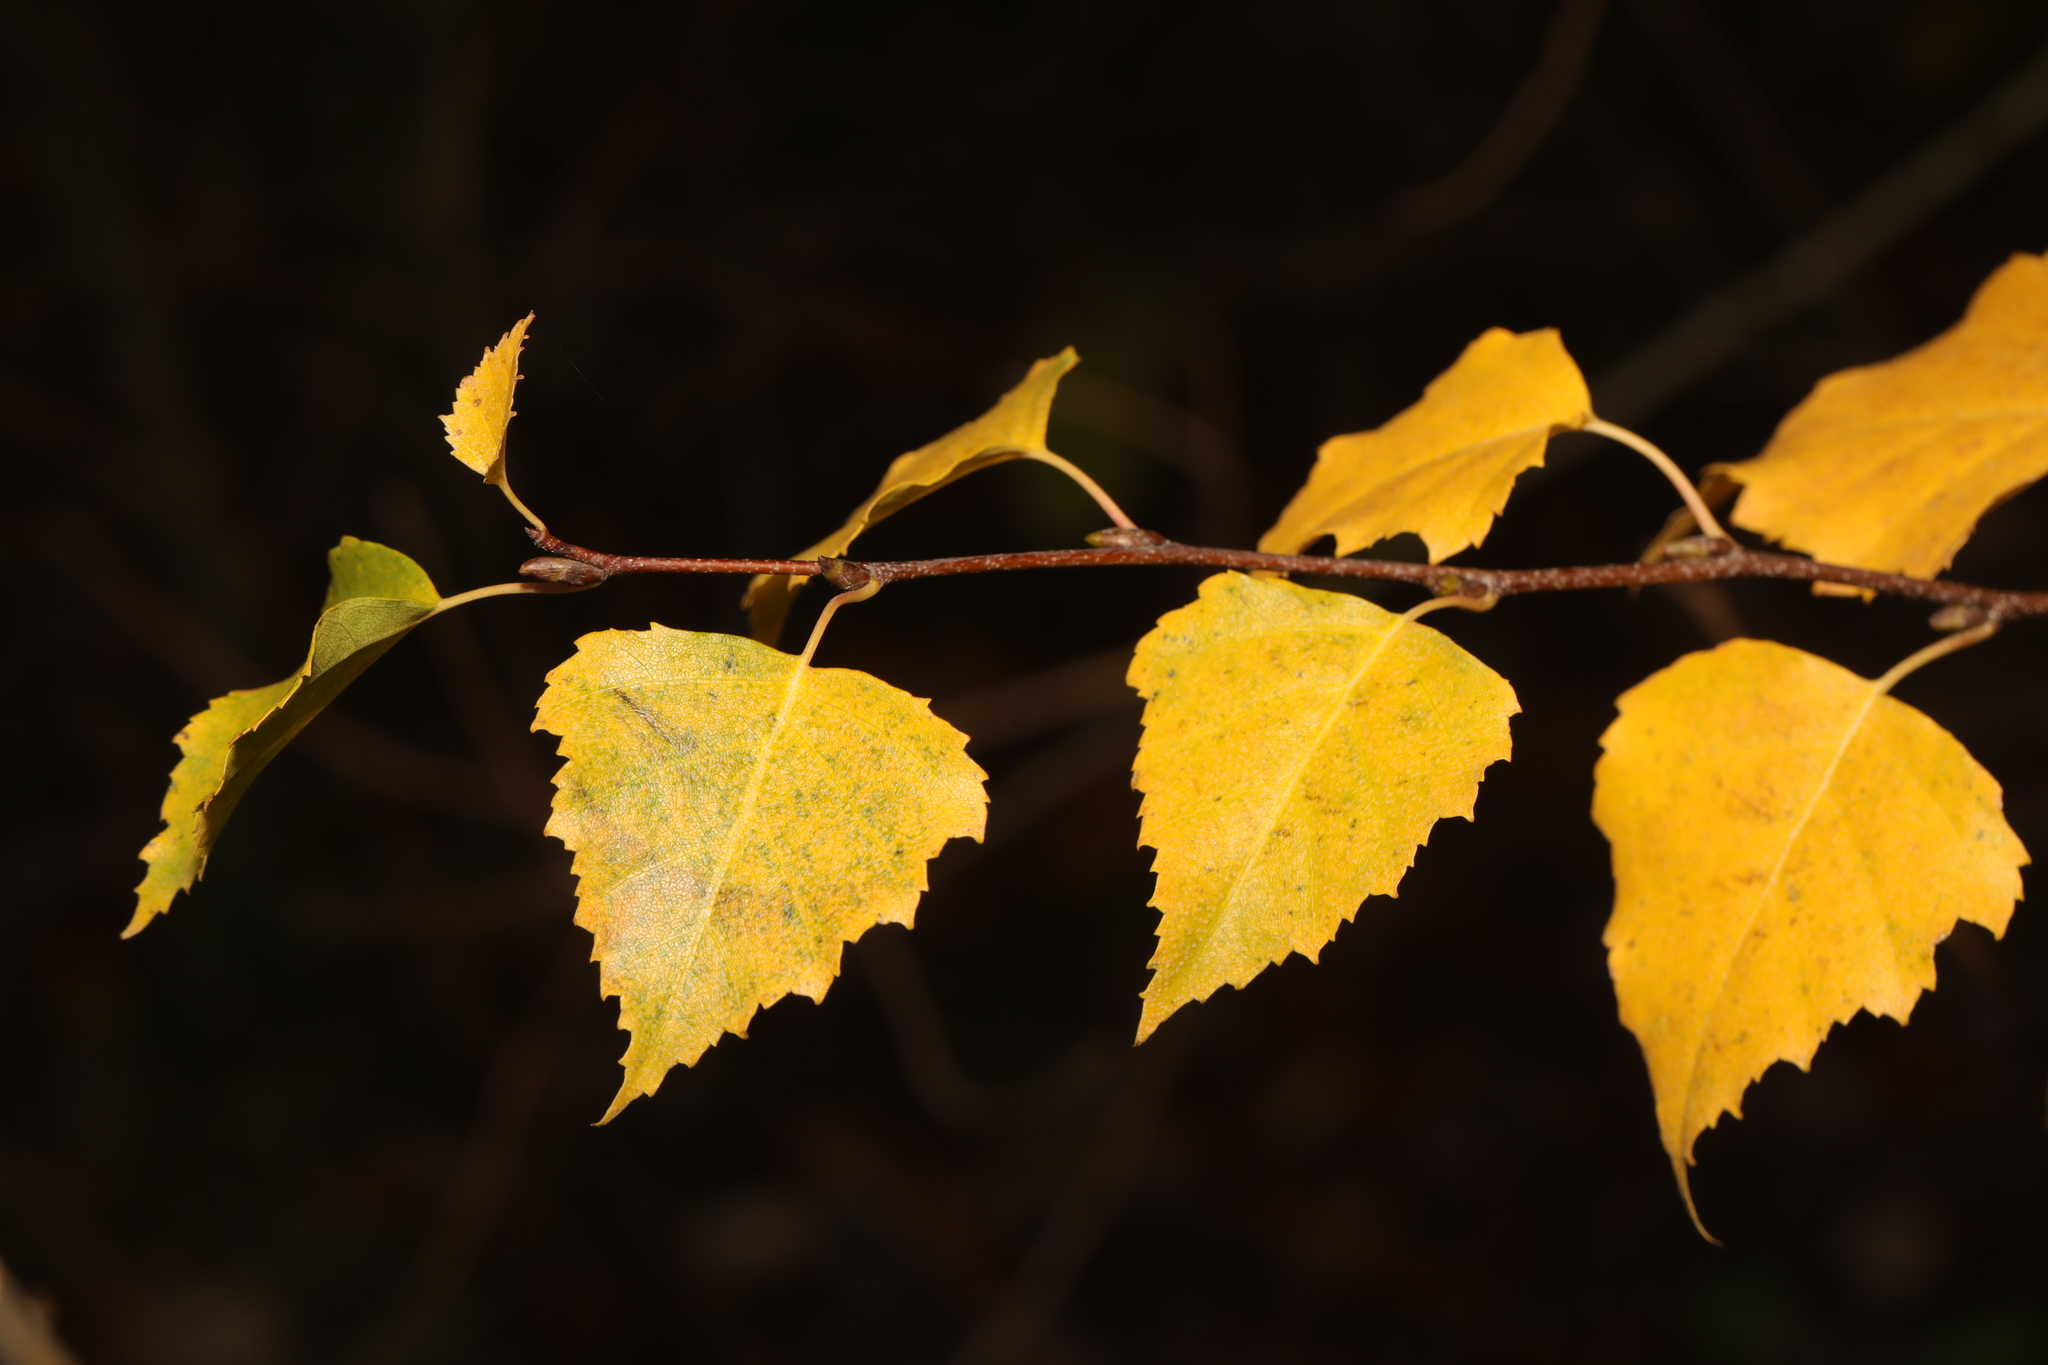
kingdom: Plantae
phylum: Tracheophyta
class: Magnoliopsida
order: Fagales
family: Betulaceae
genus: Betula
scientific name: Betula pendula
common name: Silver birch
